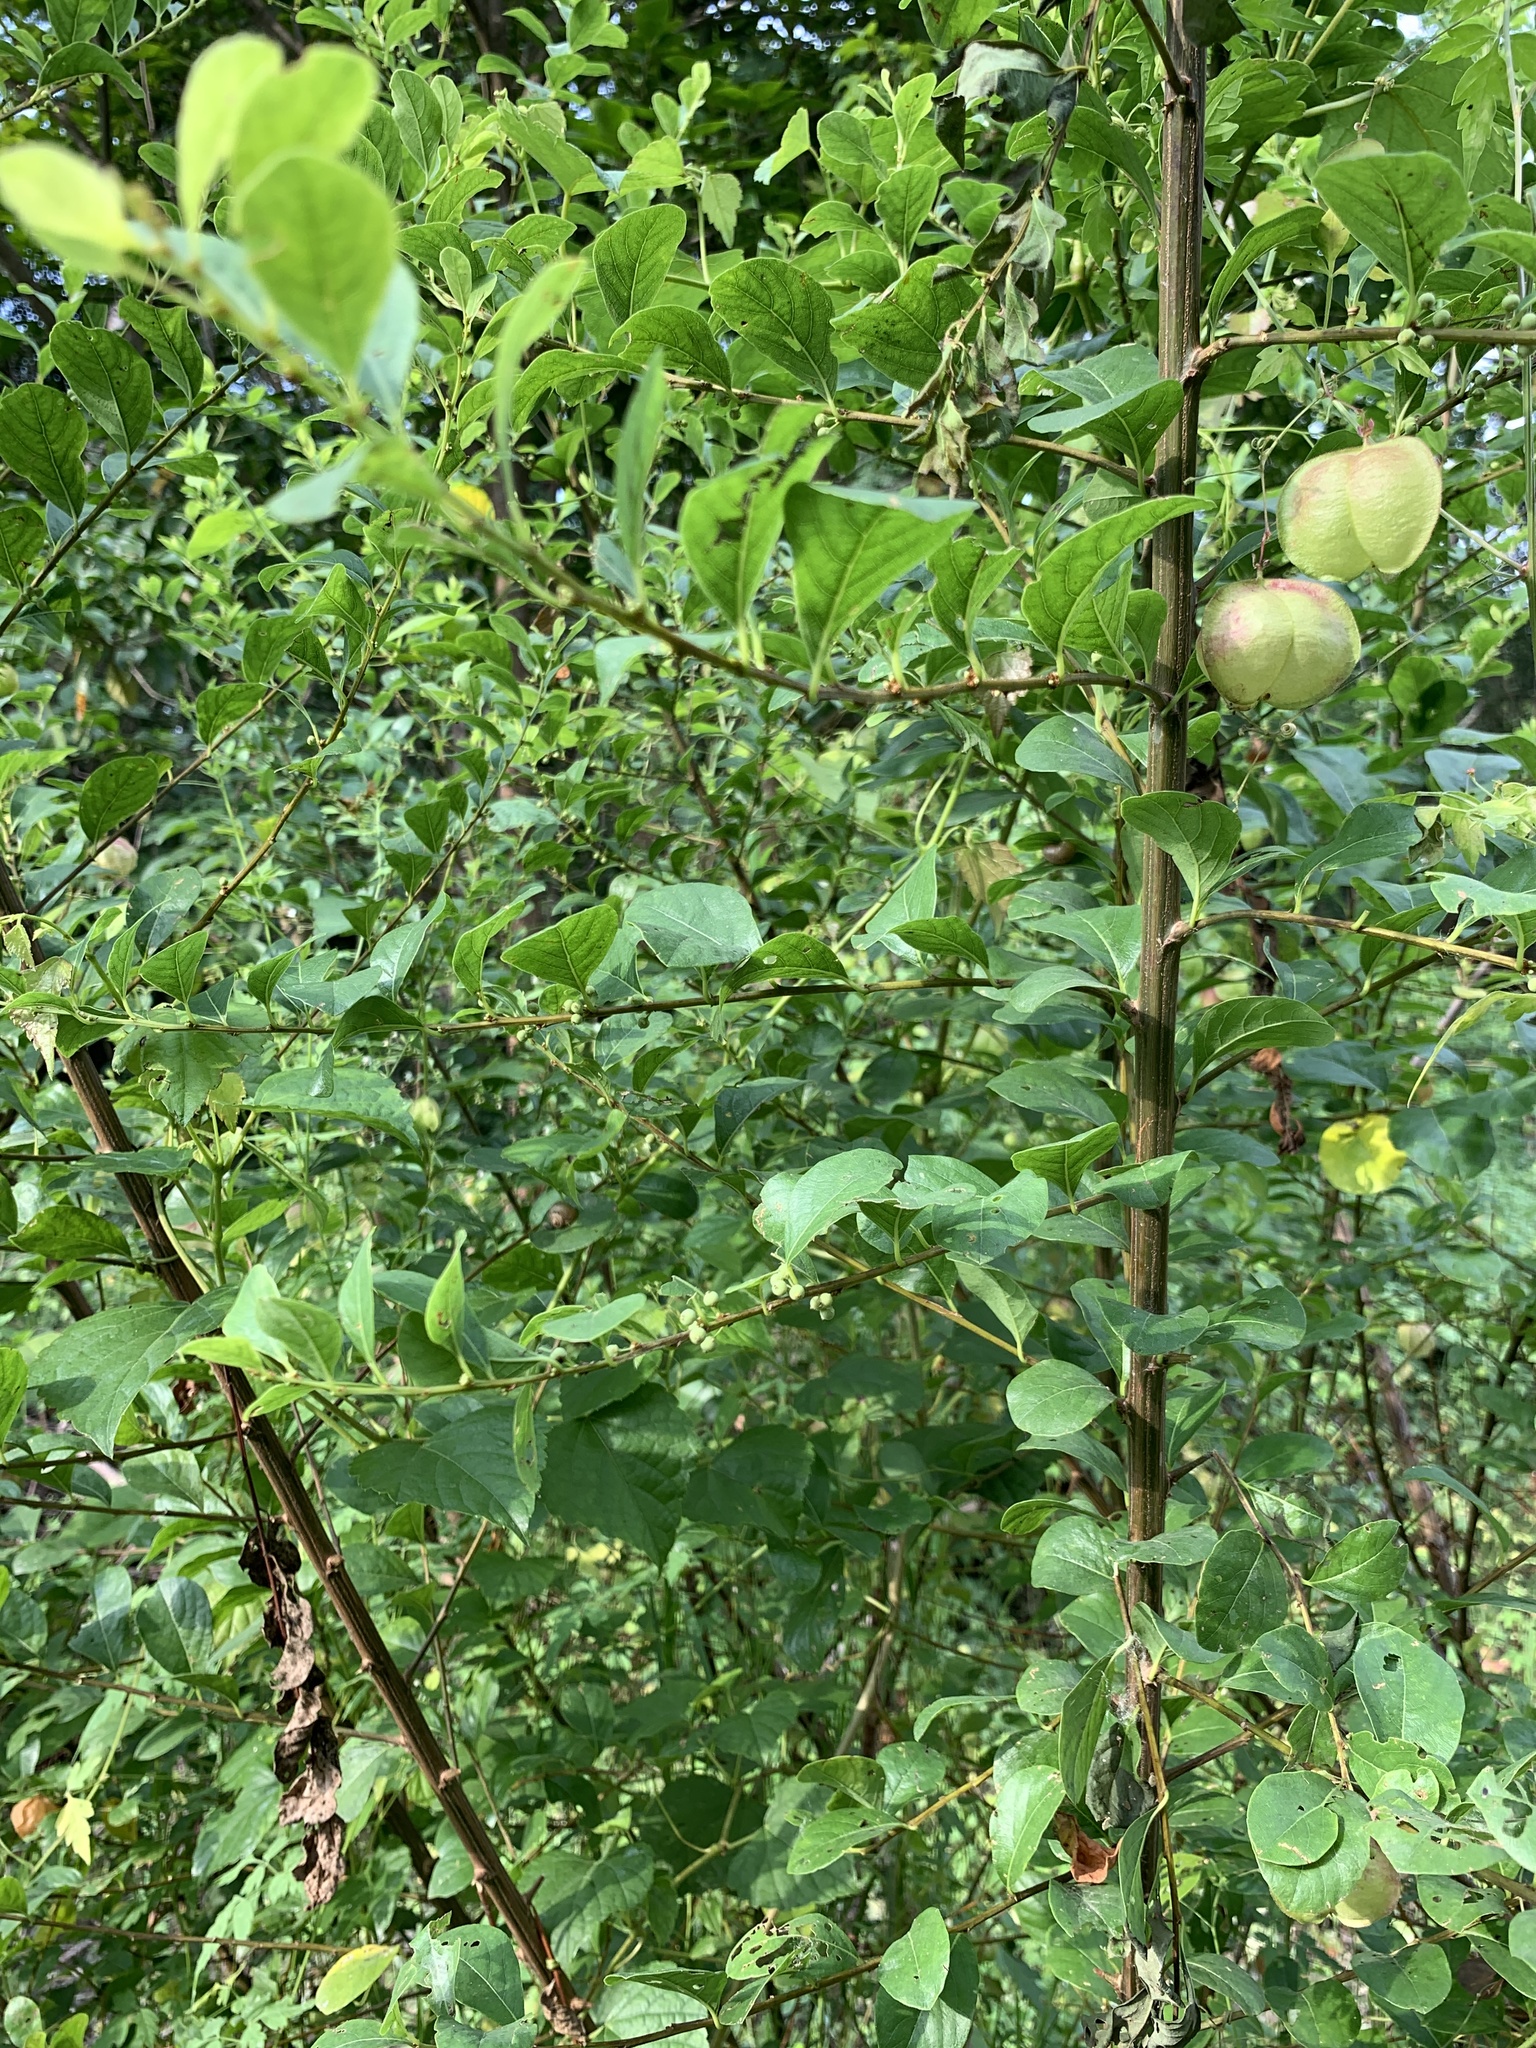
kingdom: Plantae
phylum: Tracheophyta
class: Magnoliopsida
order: Malpighiales
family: Phyllanthaceae
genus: Flueggea
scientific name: Flueggea virosa
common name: Common bushweed
